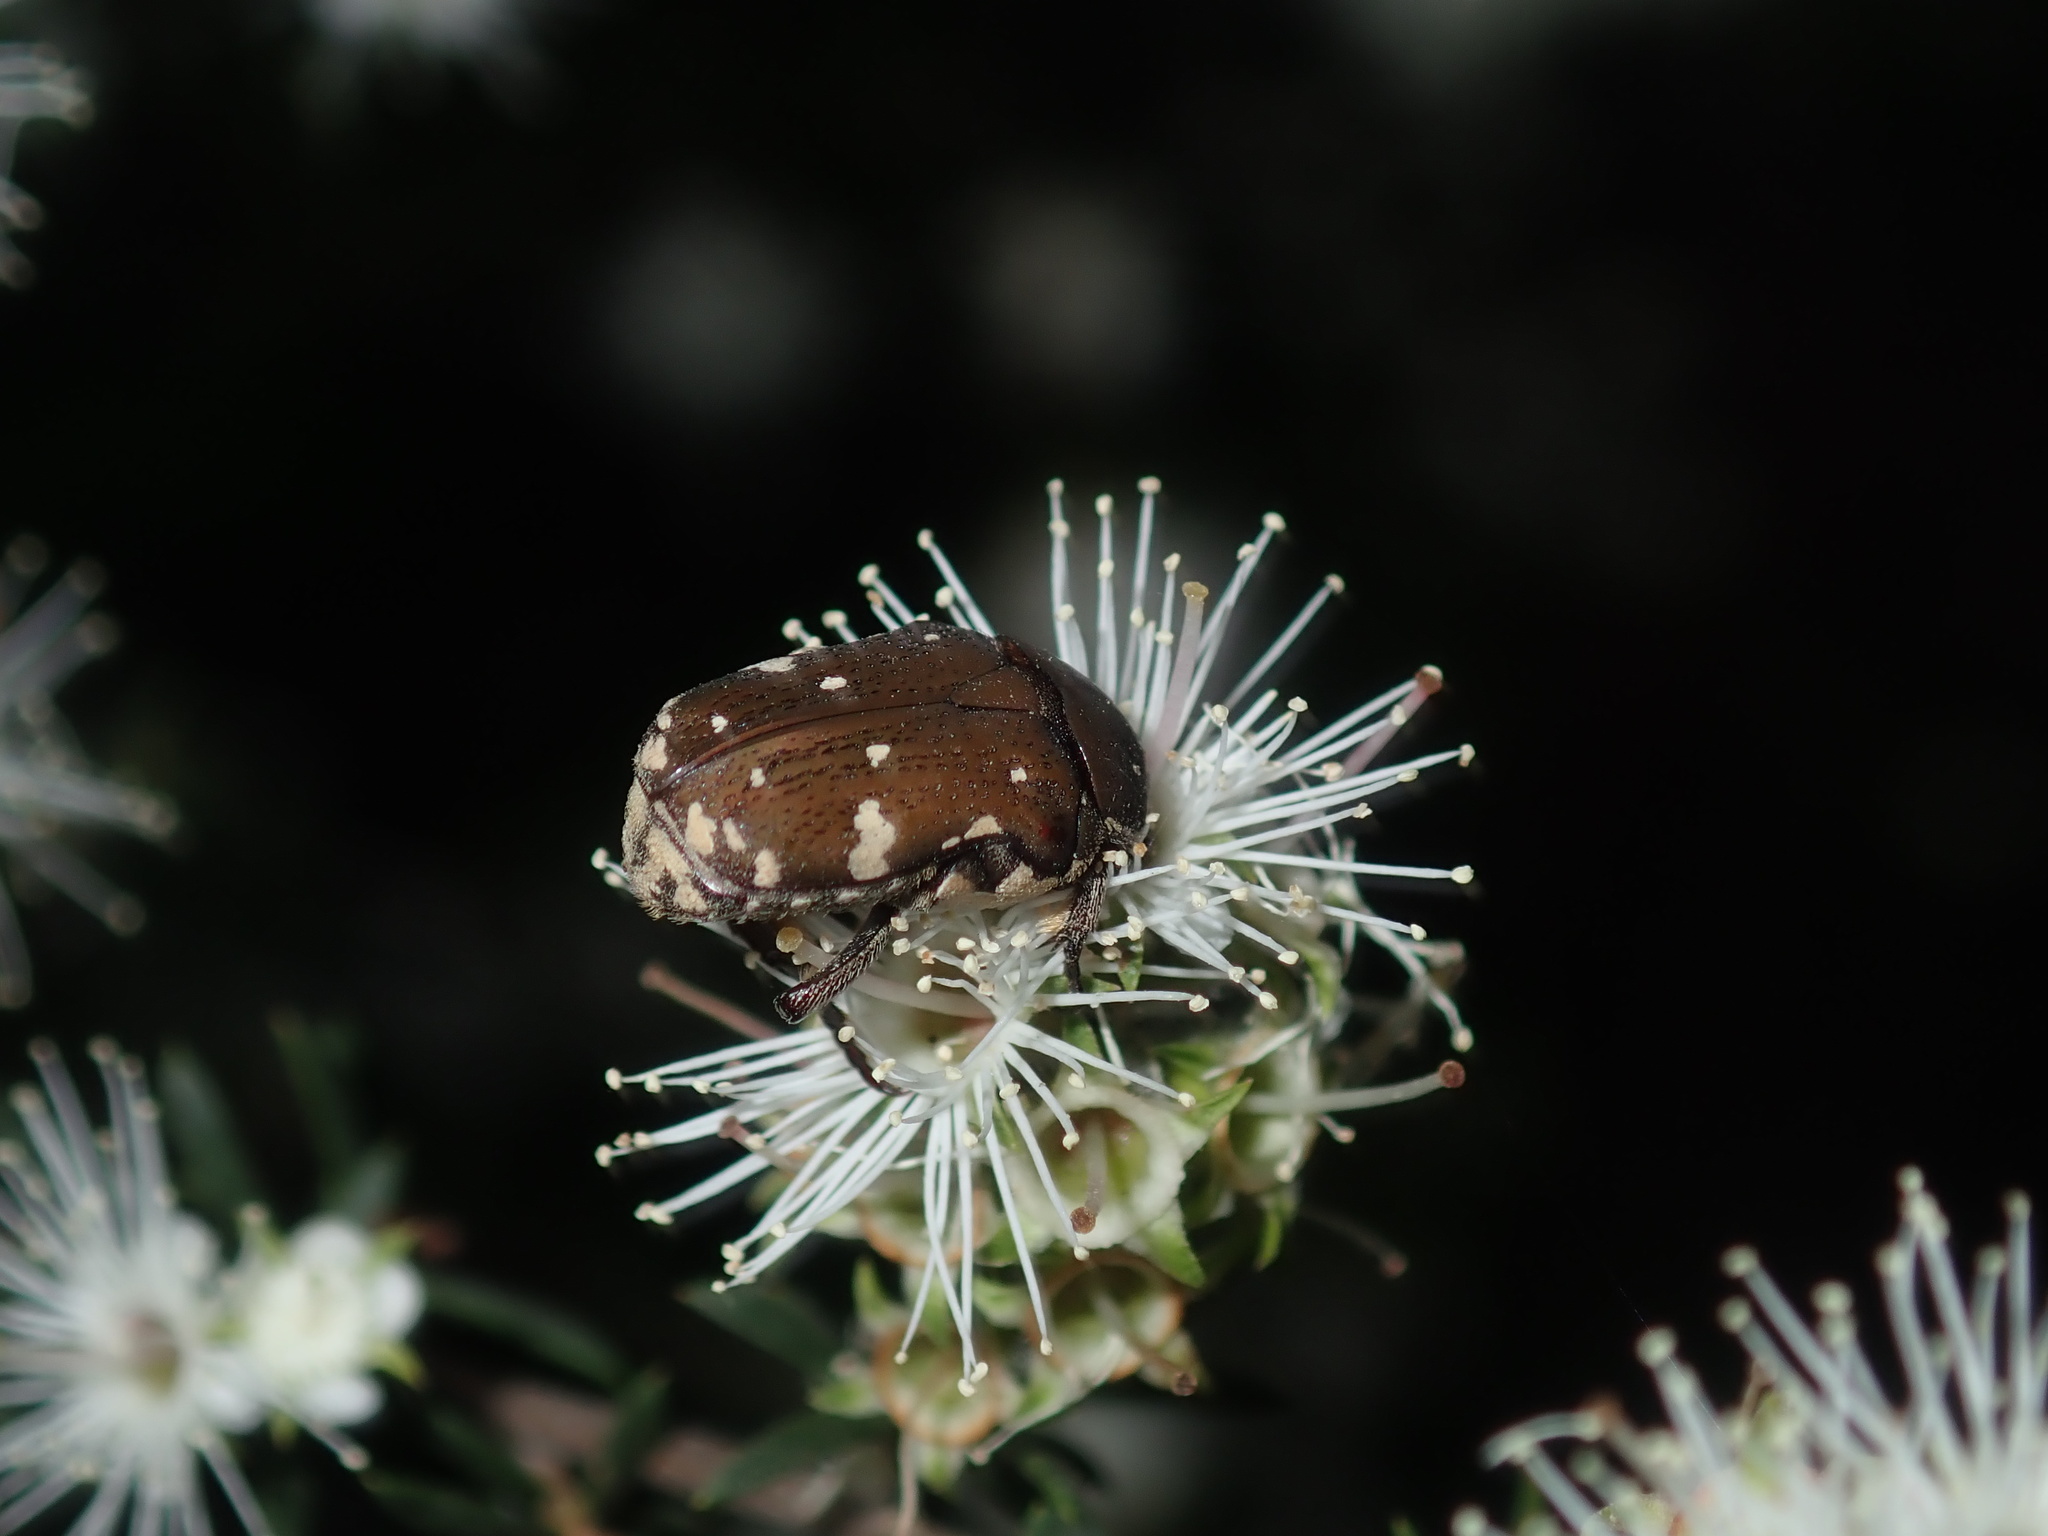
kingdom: Animalia
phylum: Arthropoda
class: Insecta
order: Coleoptera
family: Scarabaeidae
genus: Glycyphana
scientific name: Glycyphana stolata
